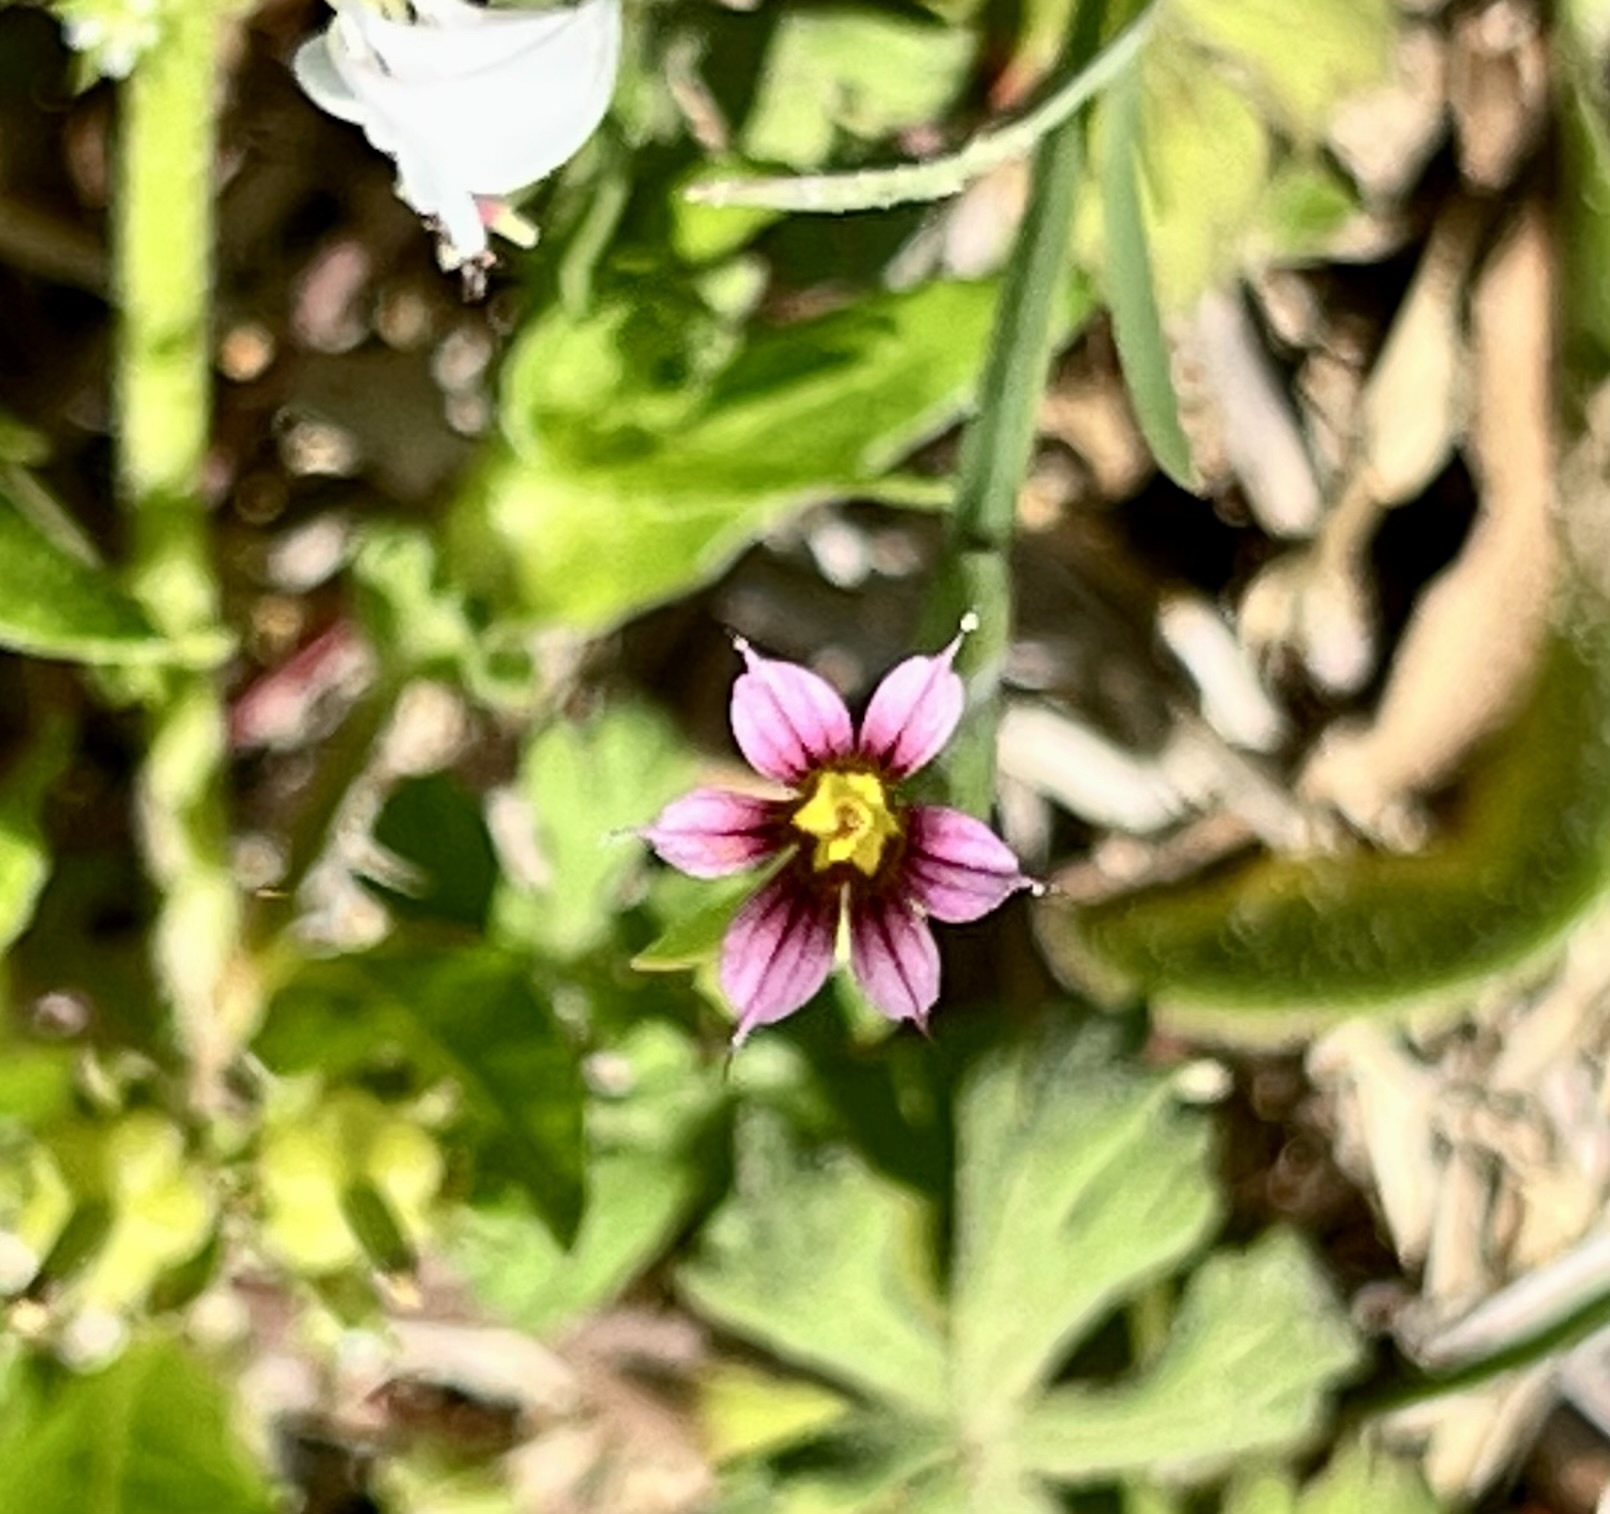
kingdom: Plantae
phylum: Tracheophyta
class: Liliopsida
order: Asparagales
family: Iridaceae
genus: Sisyrinchium
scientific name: Sisyrinchium minus
